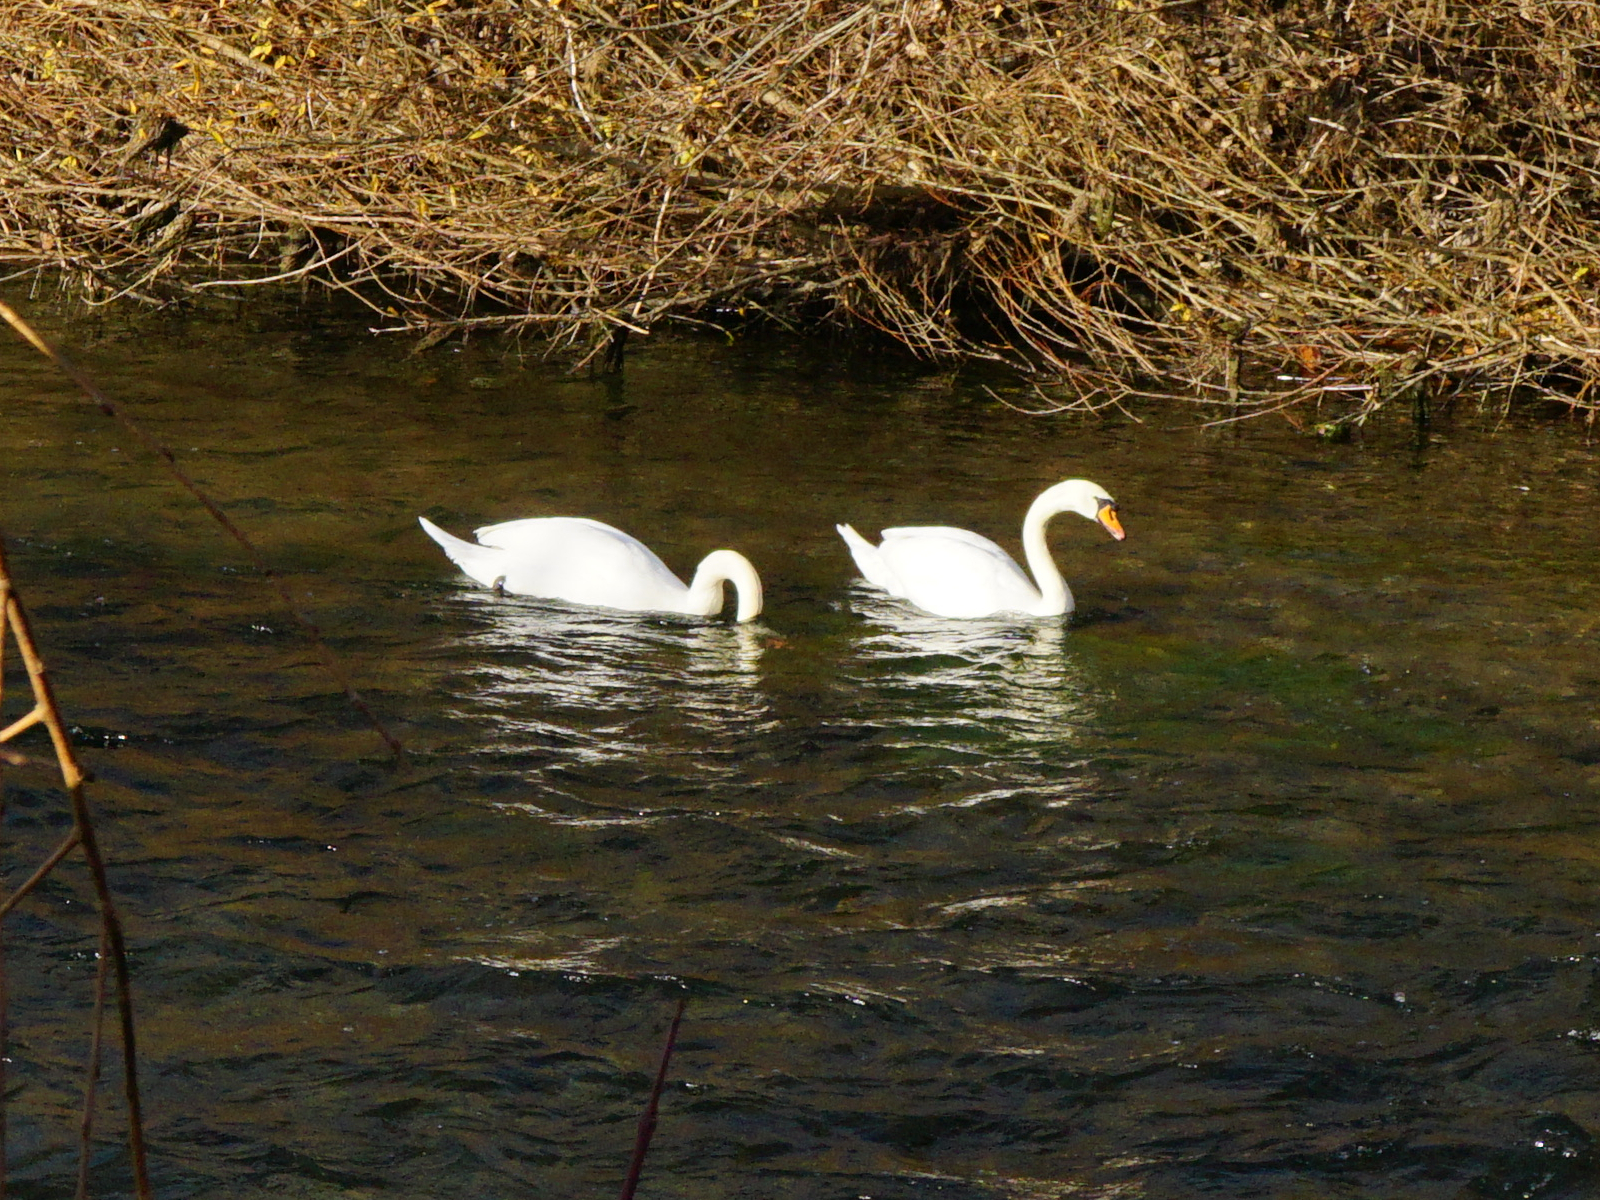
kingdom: Animalia
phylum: Chordata
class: Aves
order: Anseriformes
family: Anatidae
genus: Cygnus
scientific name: Cygnus olor
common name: Mute swan
